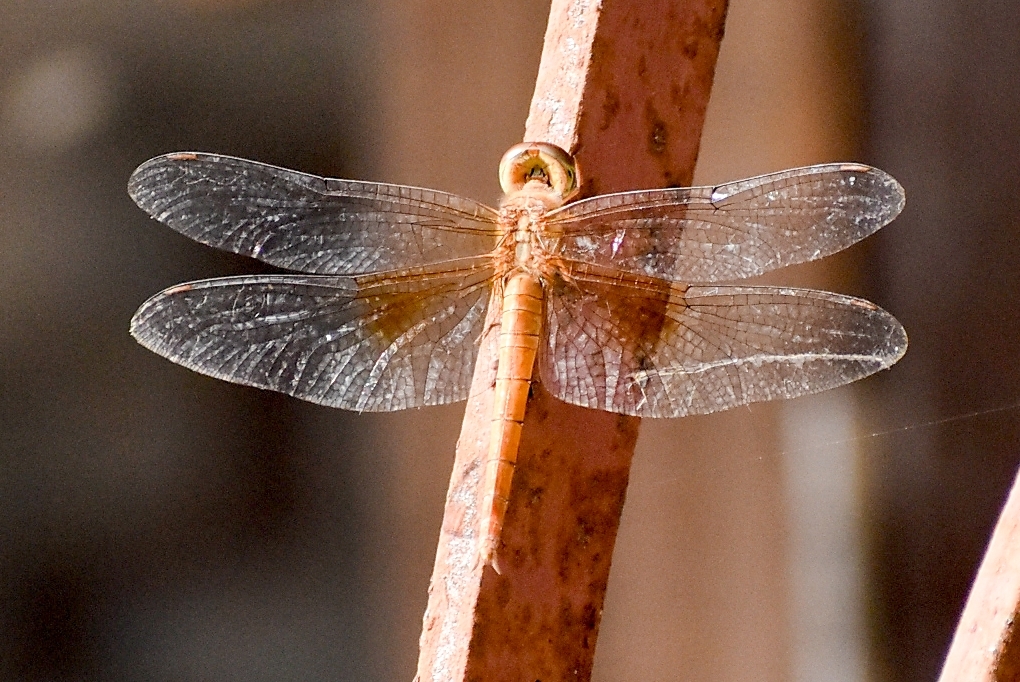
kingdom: Animalia
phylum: Arthropoda
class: Insecta
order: Odonata
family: Libellulidae
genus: Tholymis
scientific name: Tholymis tillarga
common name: Coral-tailed cloud wing
